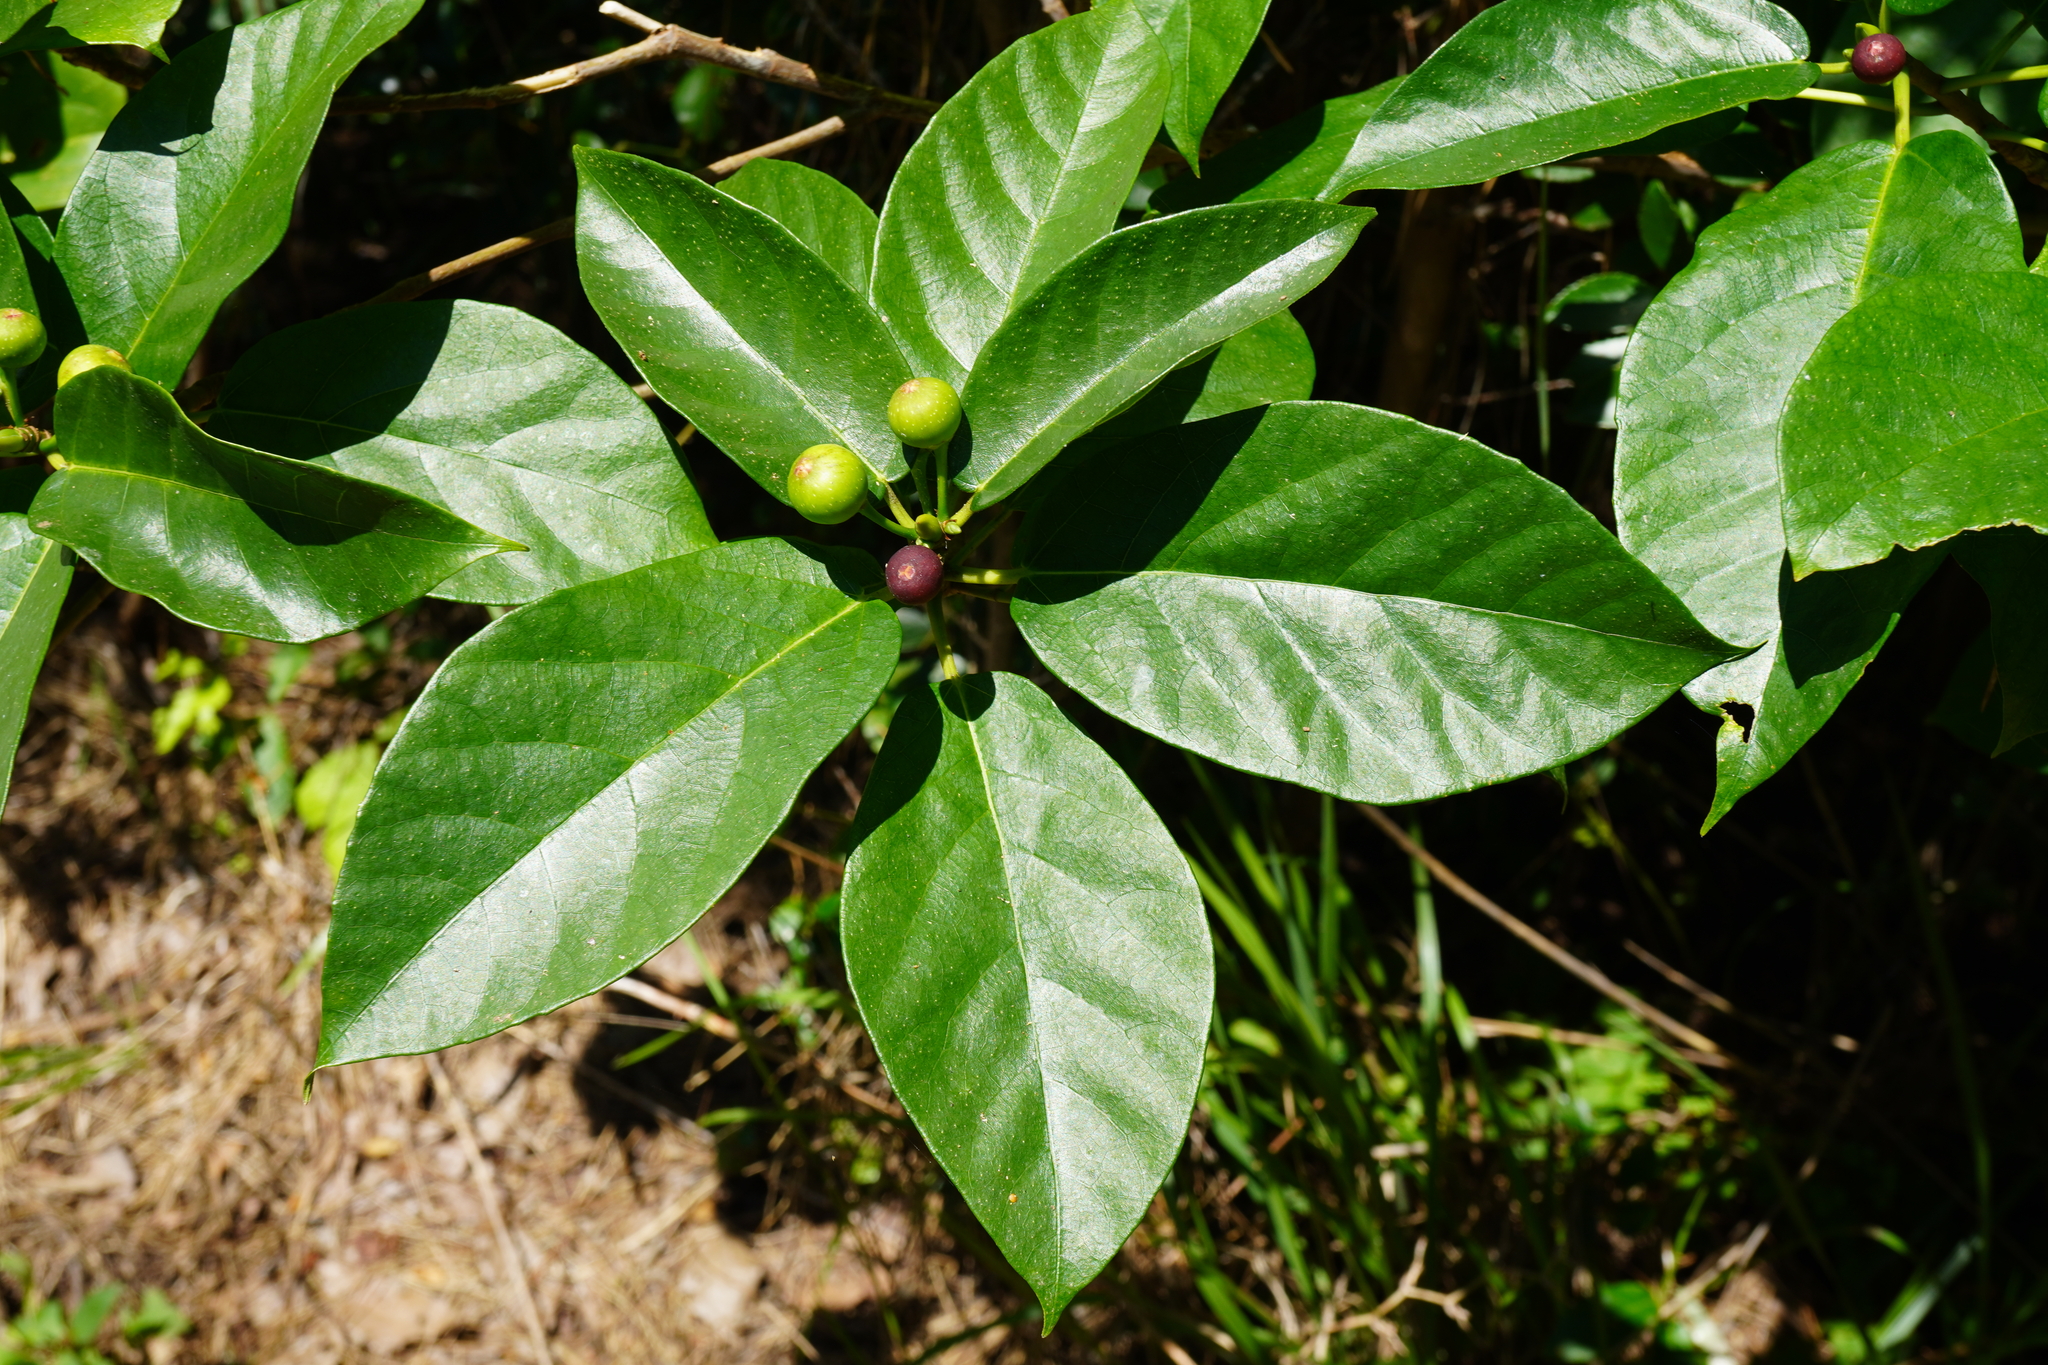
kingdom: Plantae
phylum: Tracheophyta
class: Magnoliopsida
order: Rosales
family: Moraceae
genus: Ficus
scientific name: Ficus erecta
